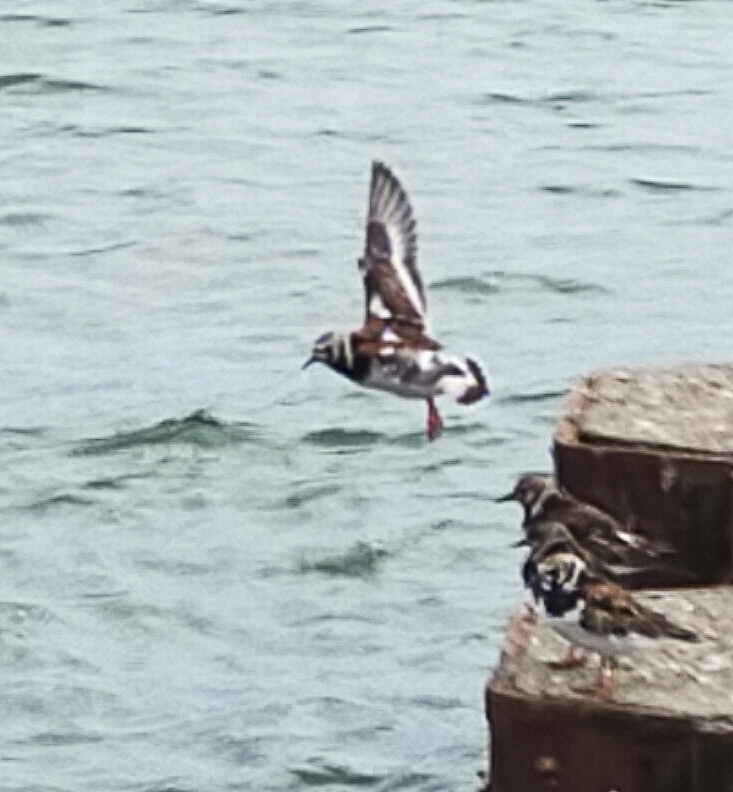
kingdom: Animalia
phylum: Chordata
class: Aves
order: Charadriiformes
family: Scolopacidae
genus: Arenaria
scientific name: Arenaria interpres
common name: Ruddy turnstone
